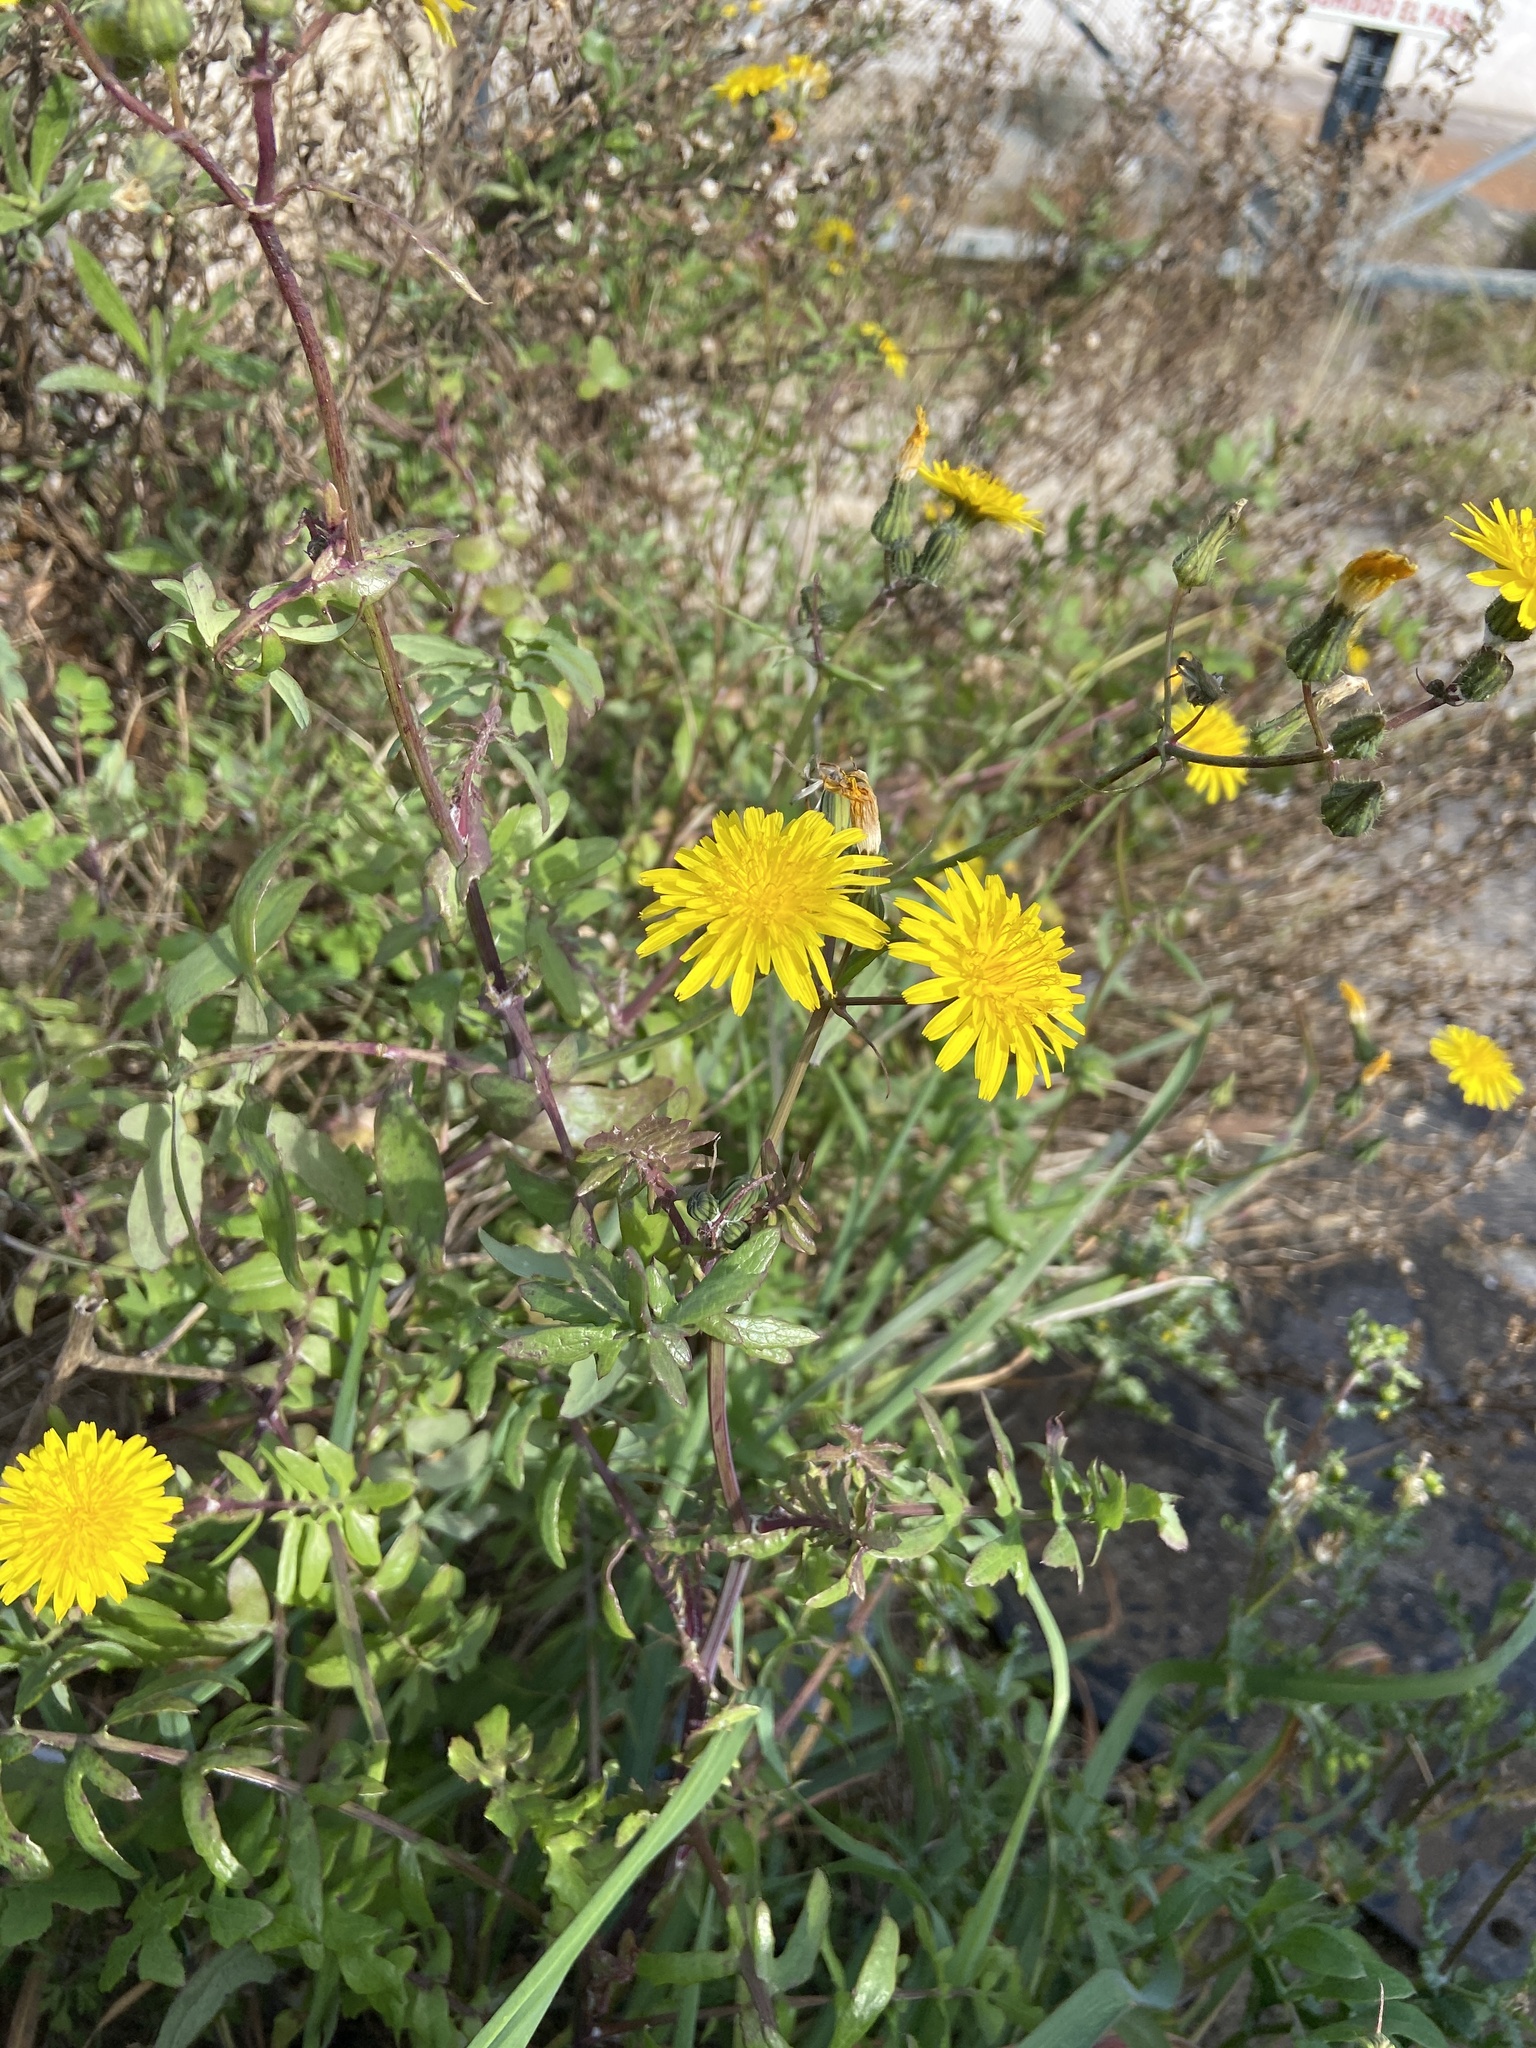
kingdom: Plantae
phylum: Tracheophyta
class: Magnoliopsida
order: Asterales
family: Asteraceae
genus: Sonchus
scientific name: Sonchus tenerrimus
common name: Clammy sowthistle
